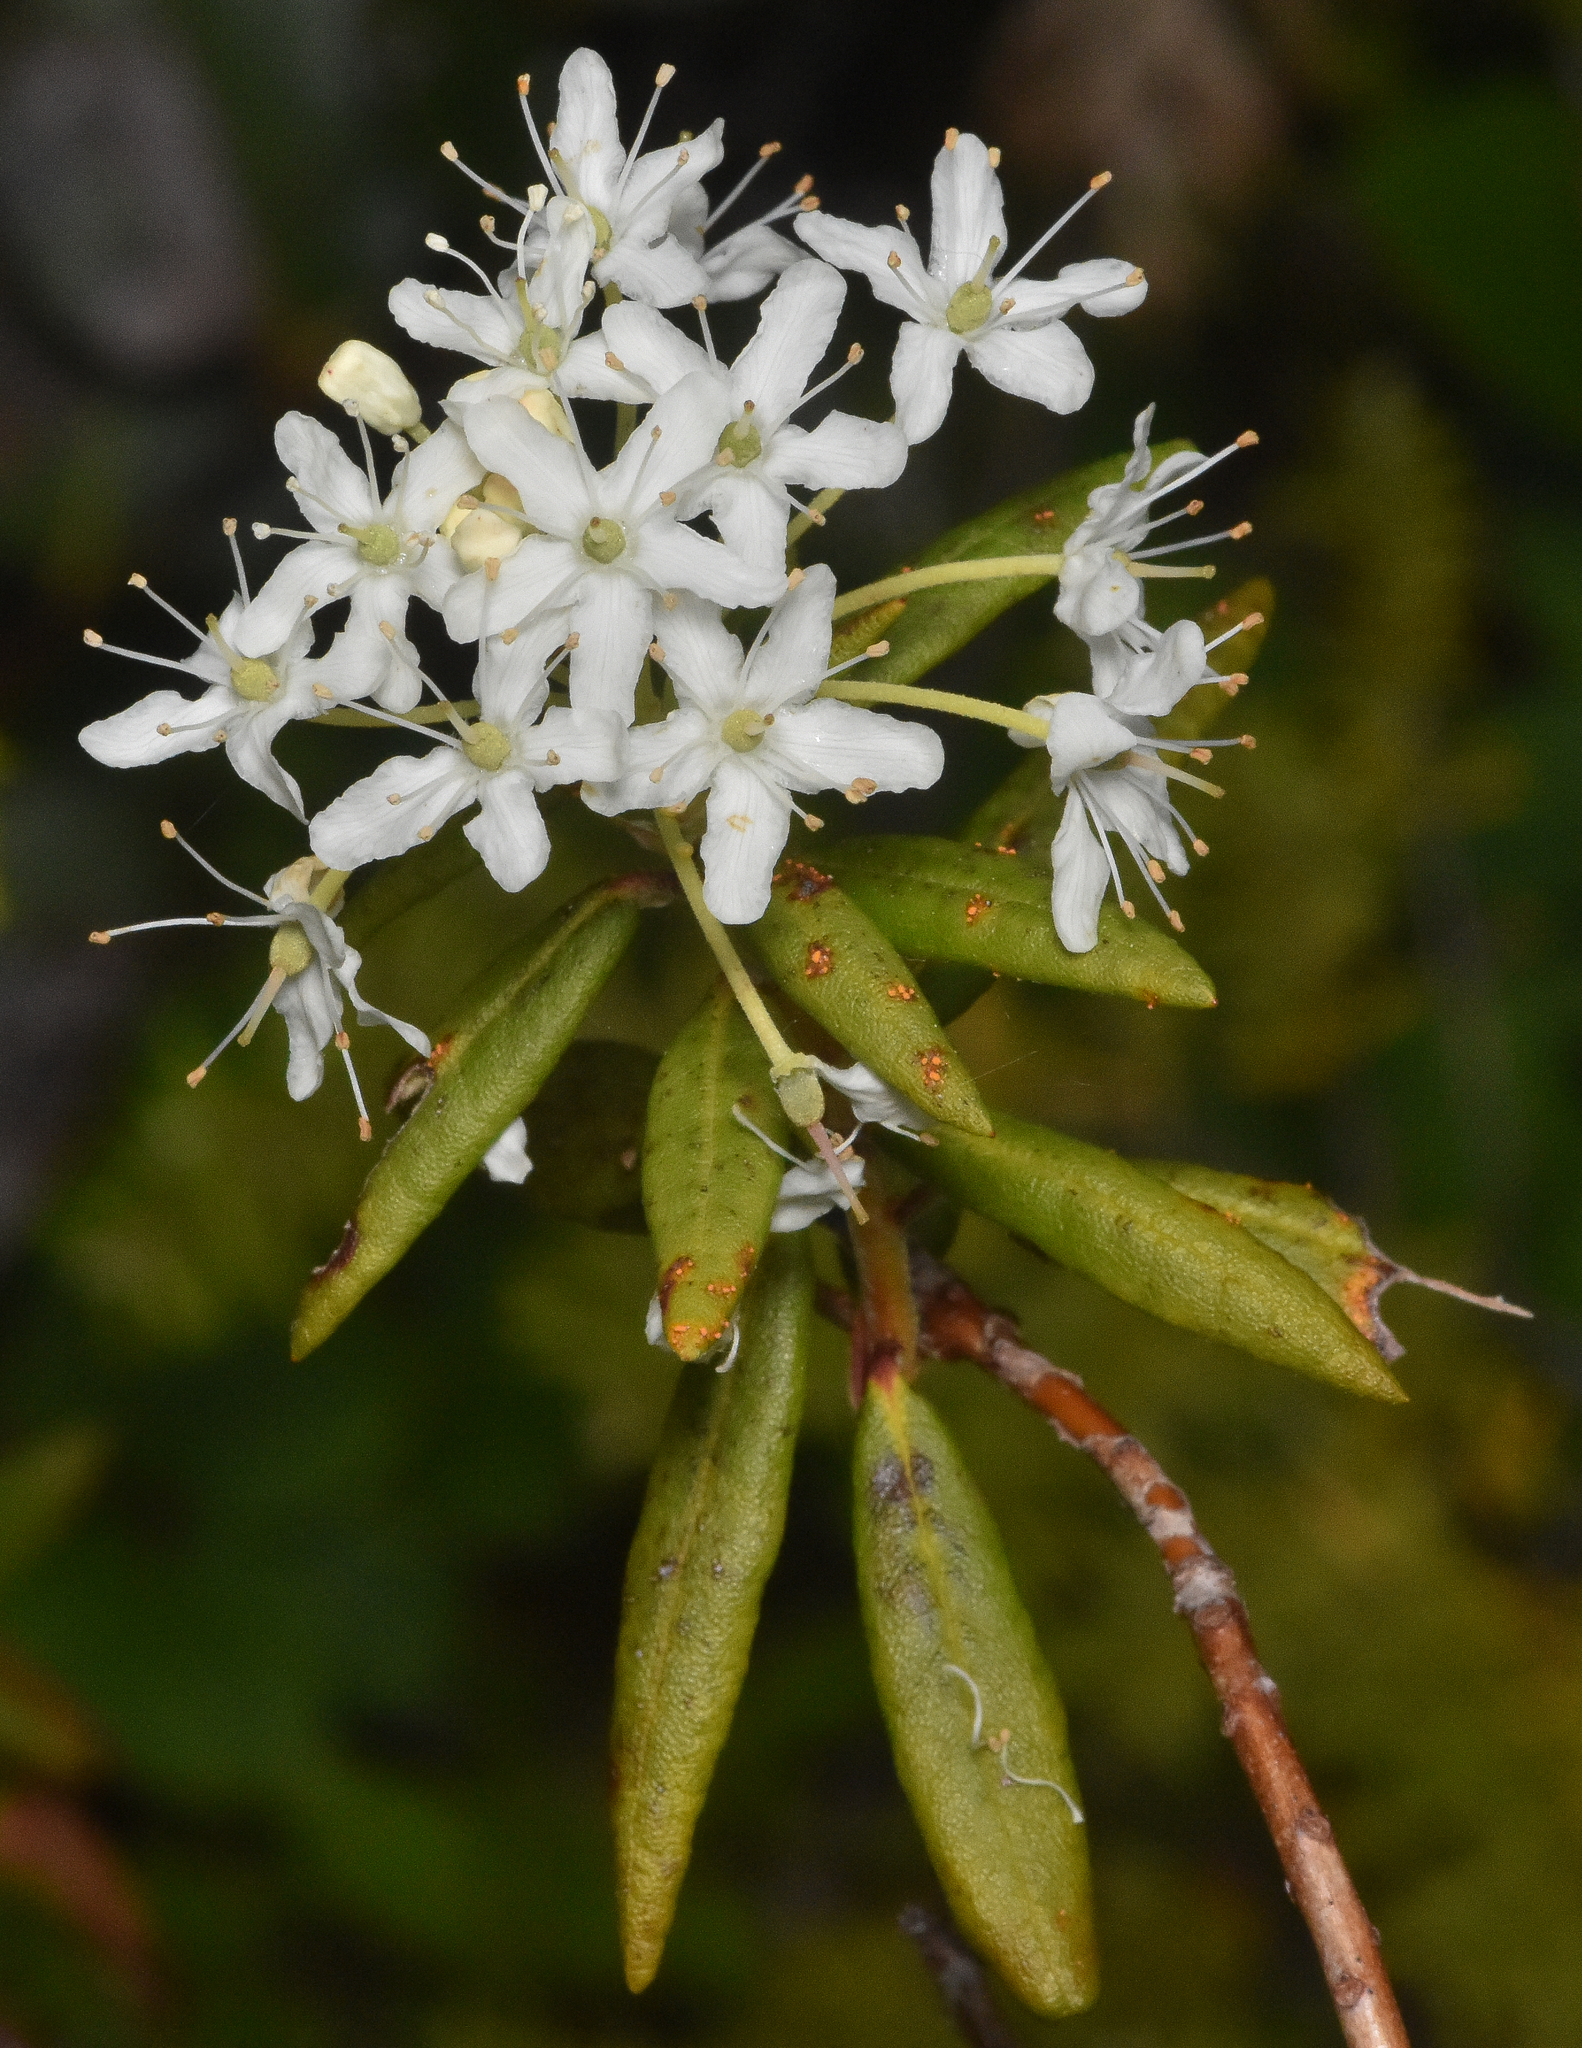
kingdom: Plantae
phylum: Tracheophyta
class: Magnoliopsida
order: Ericales
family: Ericaceae
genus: Rhododendron
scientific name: Rhododendron groenlandicum
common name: Bog labrador tea
